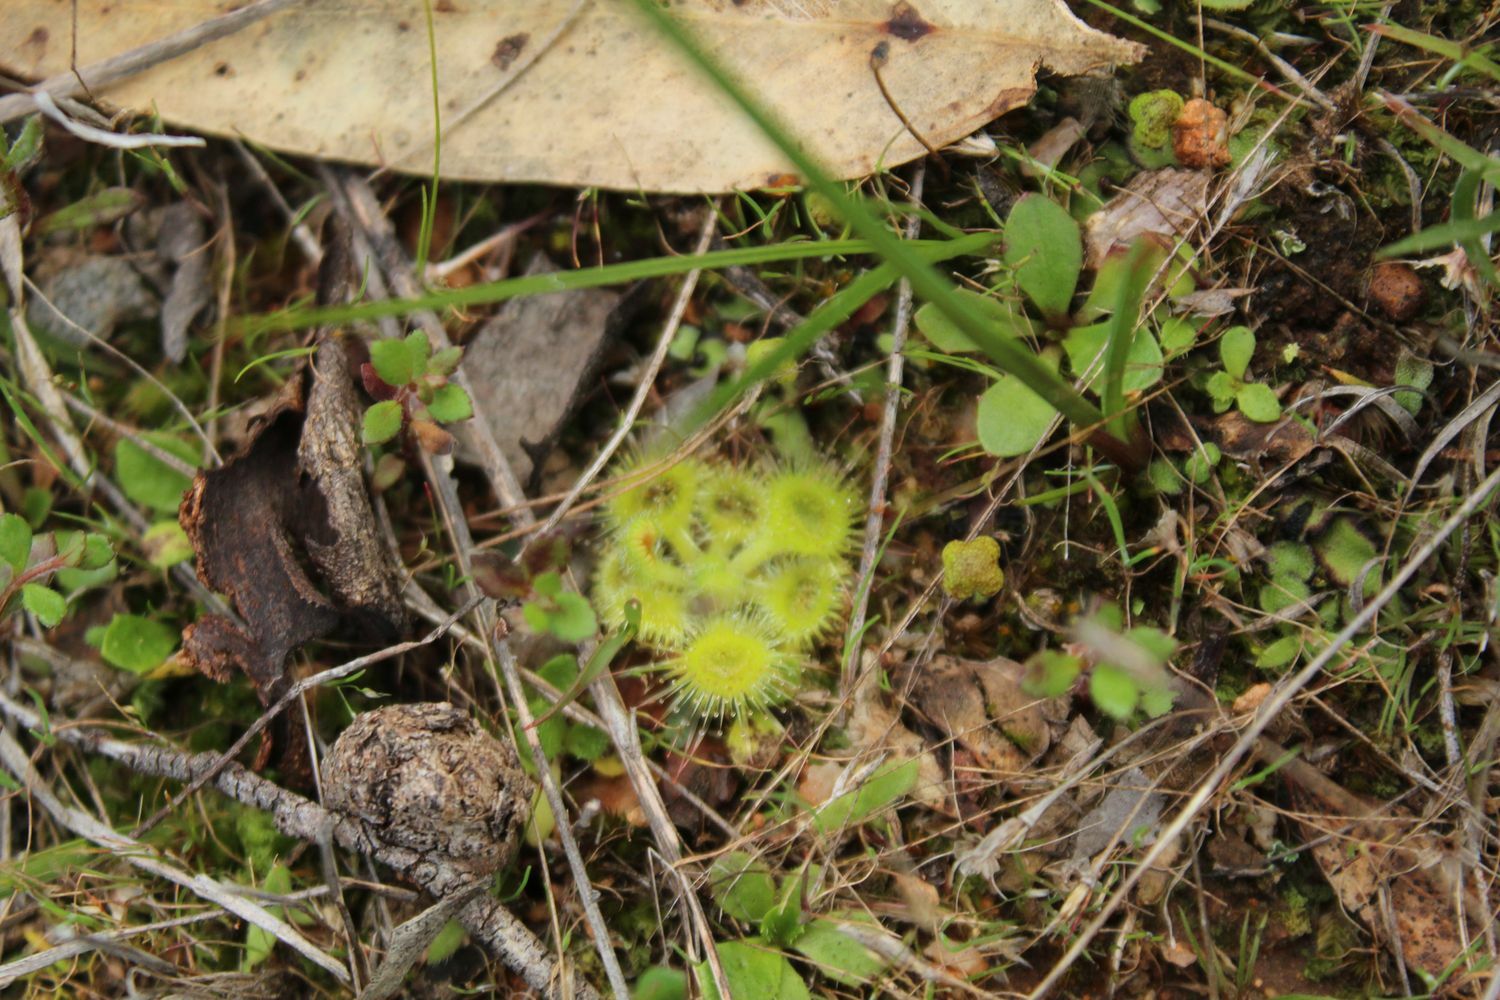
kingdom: Plantae
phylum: Tracheophyta
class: Magnoliopsida
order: Caryophyllales
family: Droseraceae
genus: Drosera
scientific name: Drosera glanduligera
